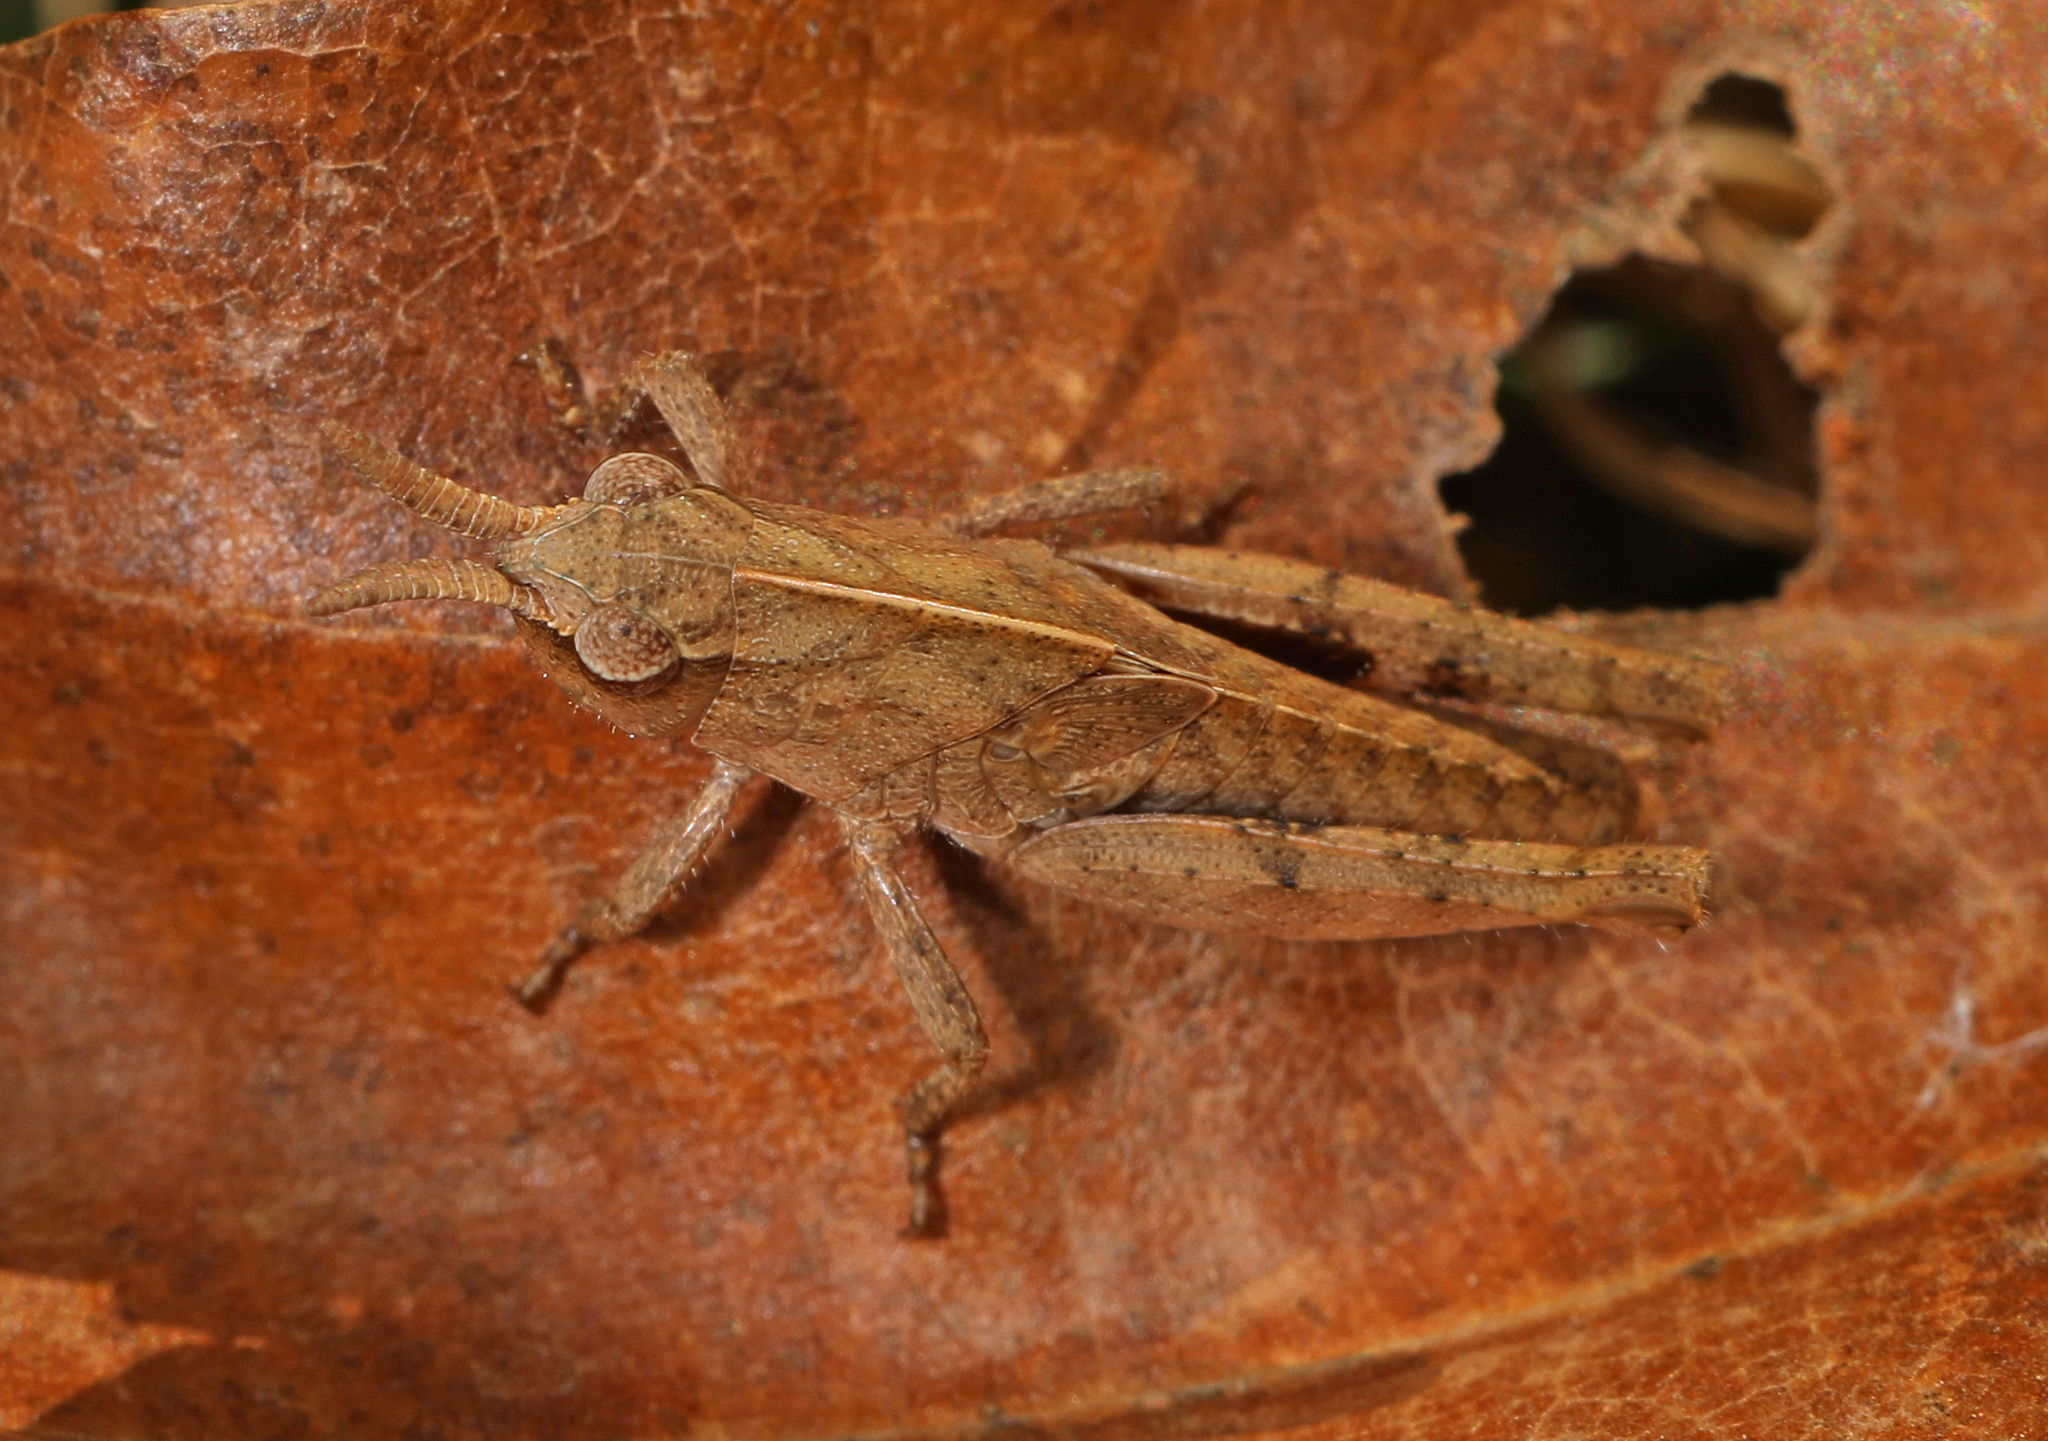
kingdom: Animalia
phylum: Arthropoda
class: Insecta
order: Orthoptera
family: Acrididae
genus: Chortophaga
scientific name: Chortophaga viridifasciata
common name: Green-striped grasshopper
